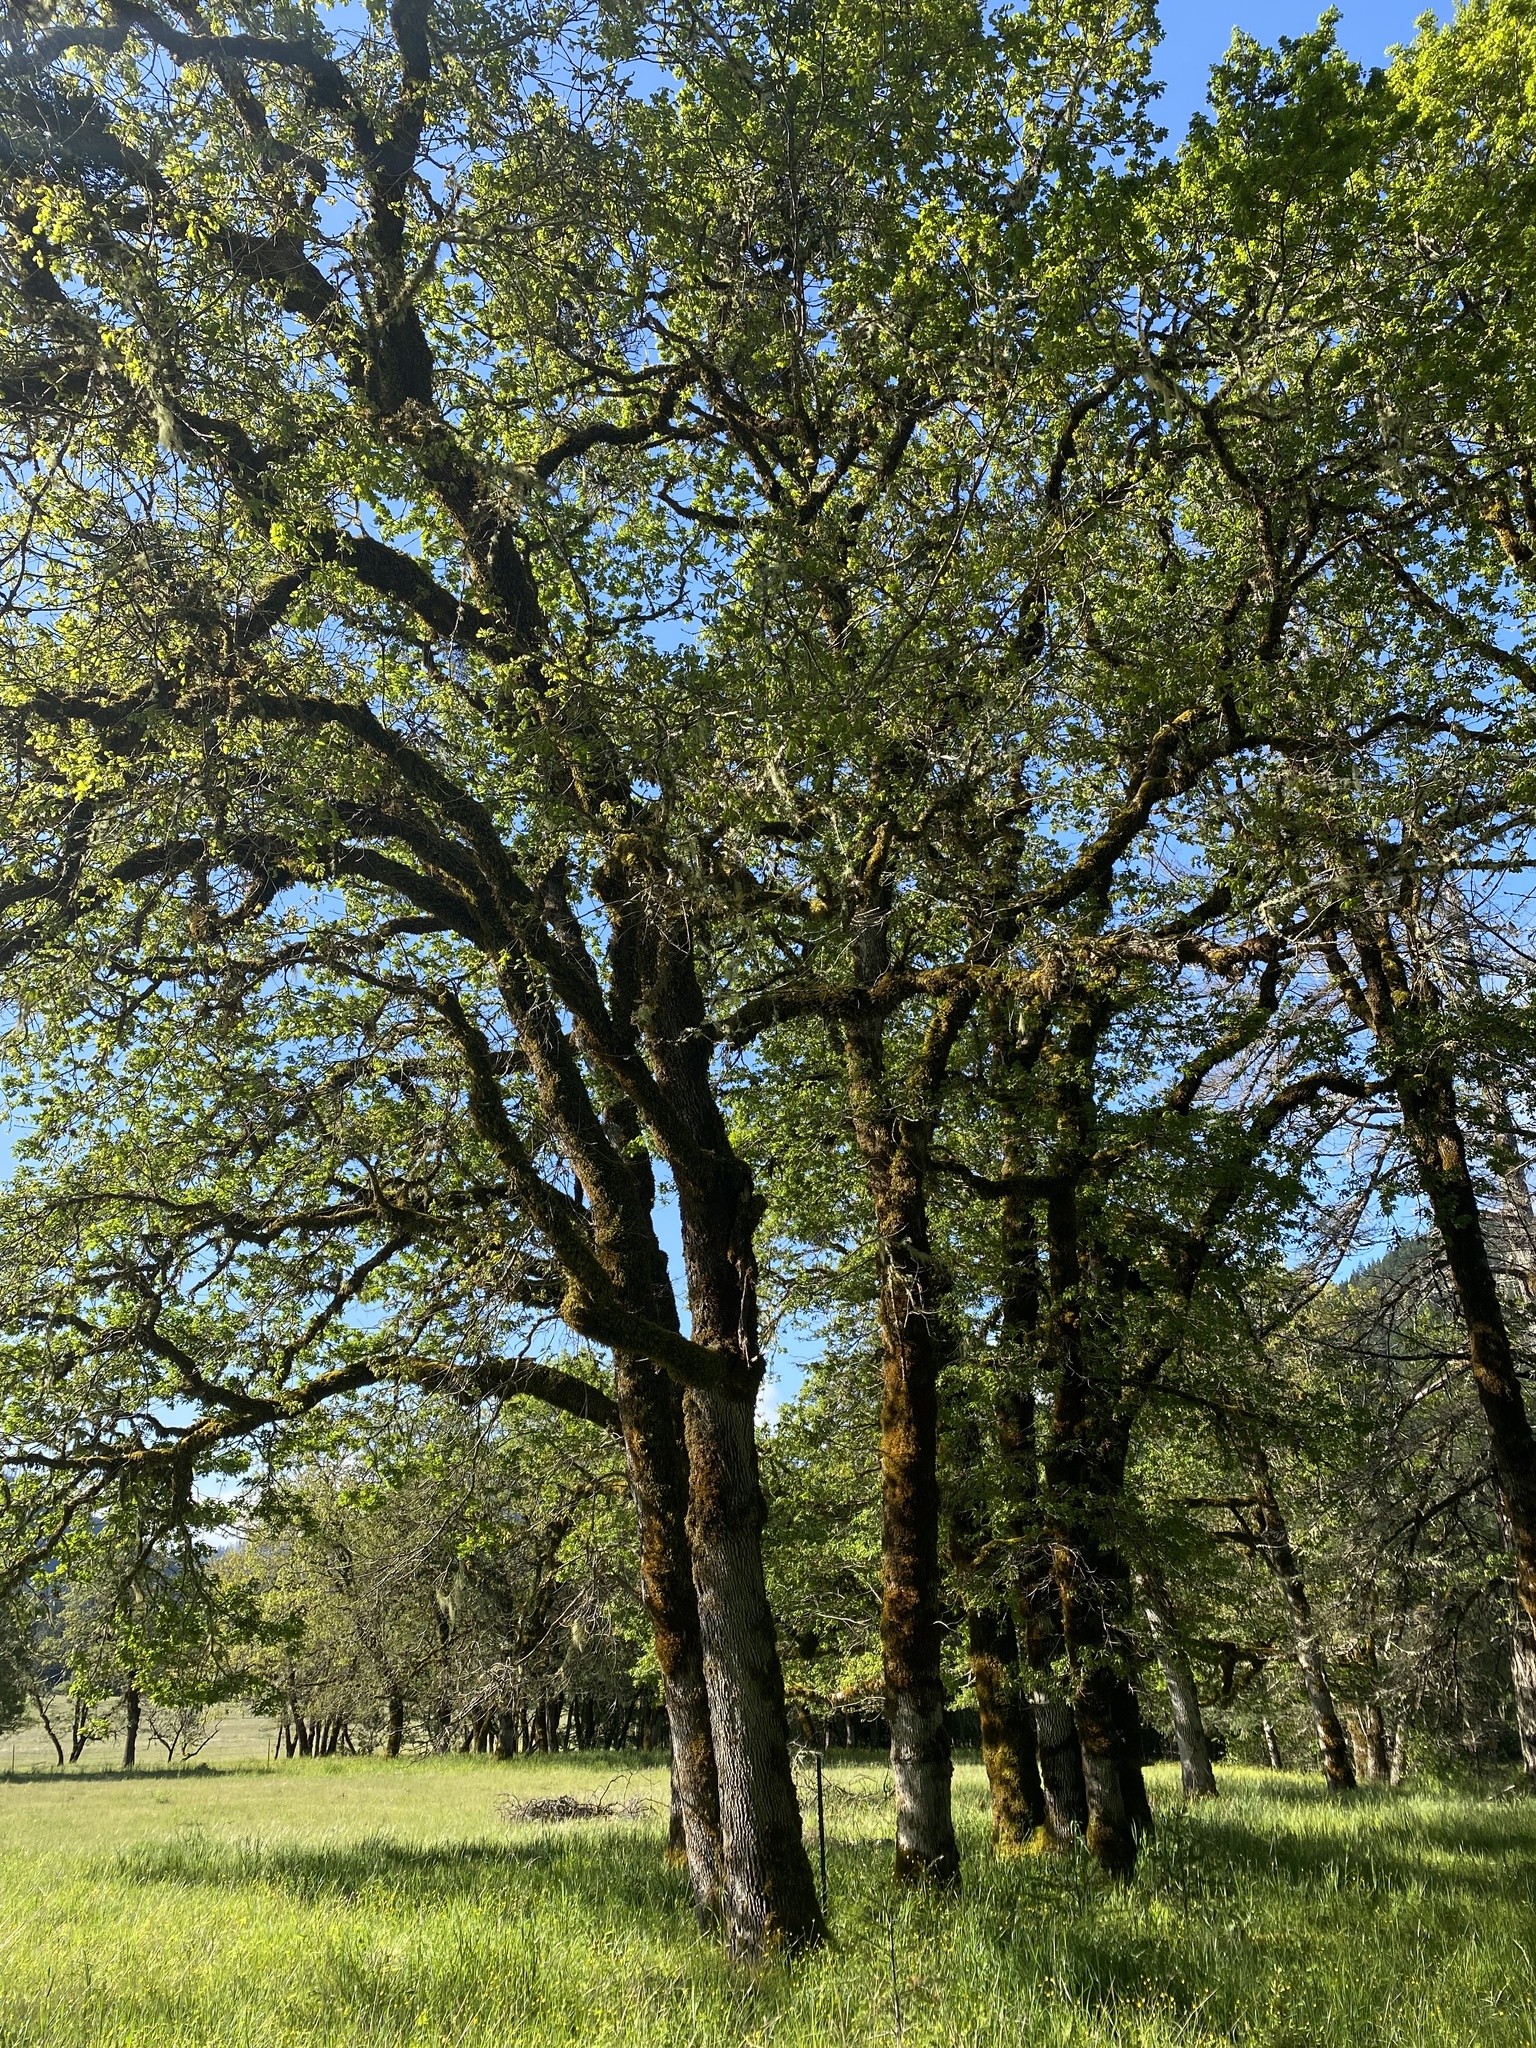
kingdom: Plantae
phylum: Tracheophyta
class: Magnoliopsida
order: Fagales
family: Fagaceae
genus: Quercus
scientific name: Quercus garryana
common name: Garry oak
